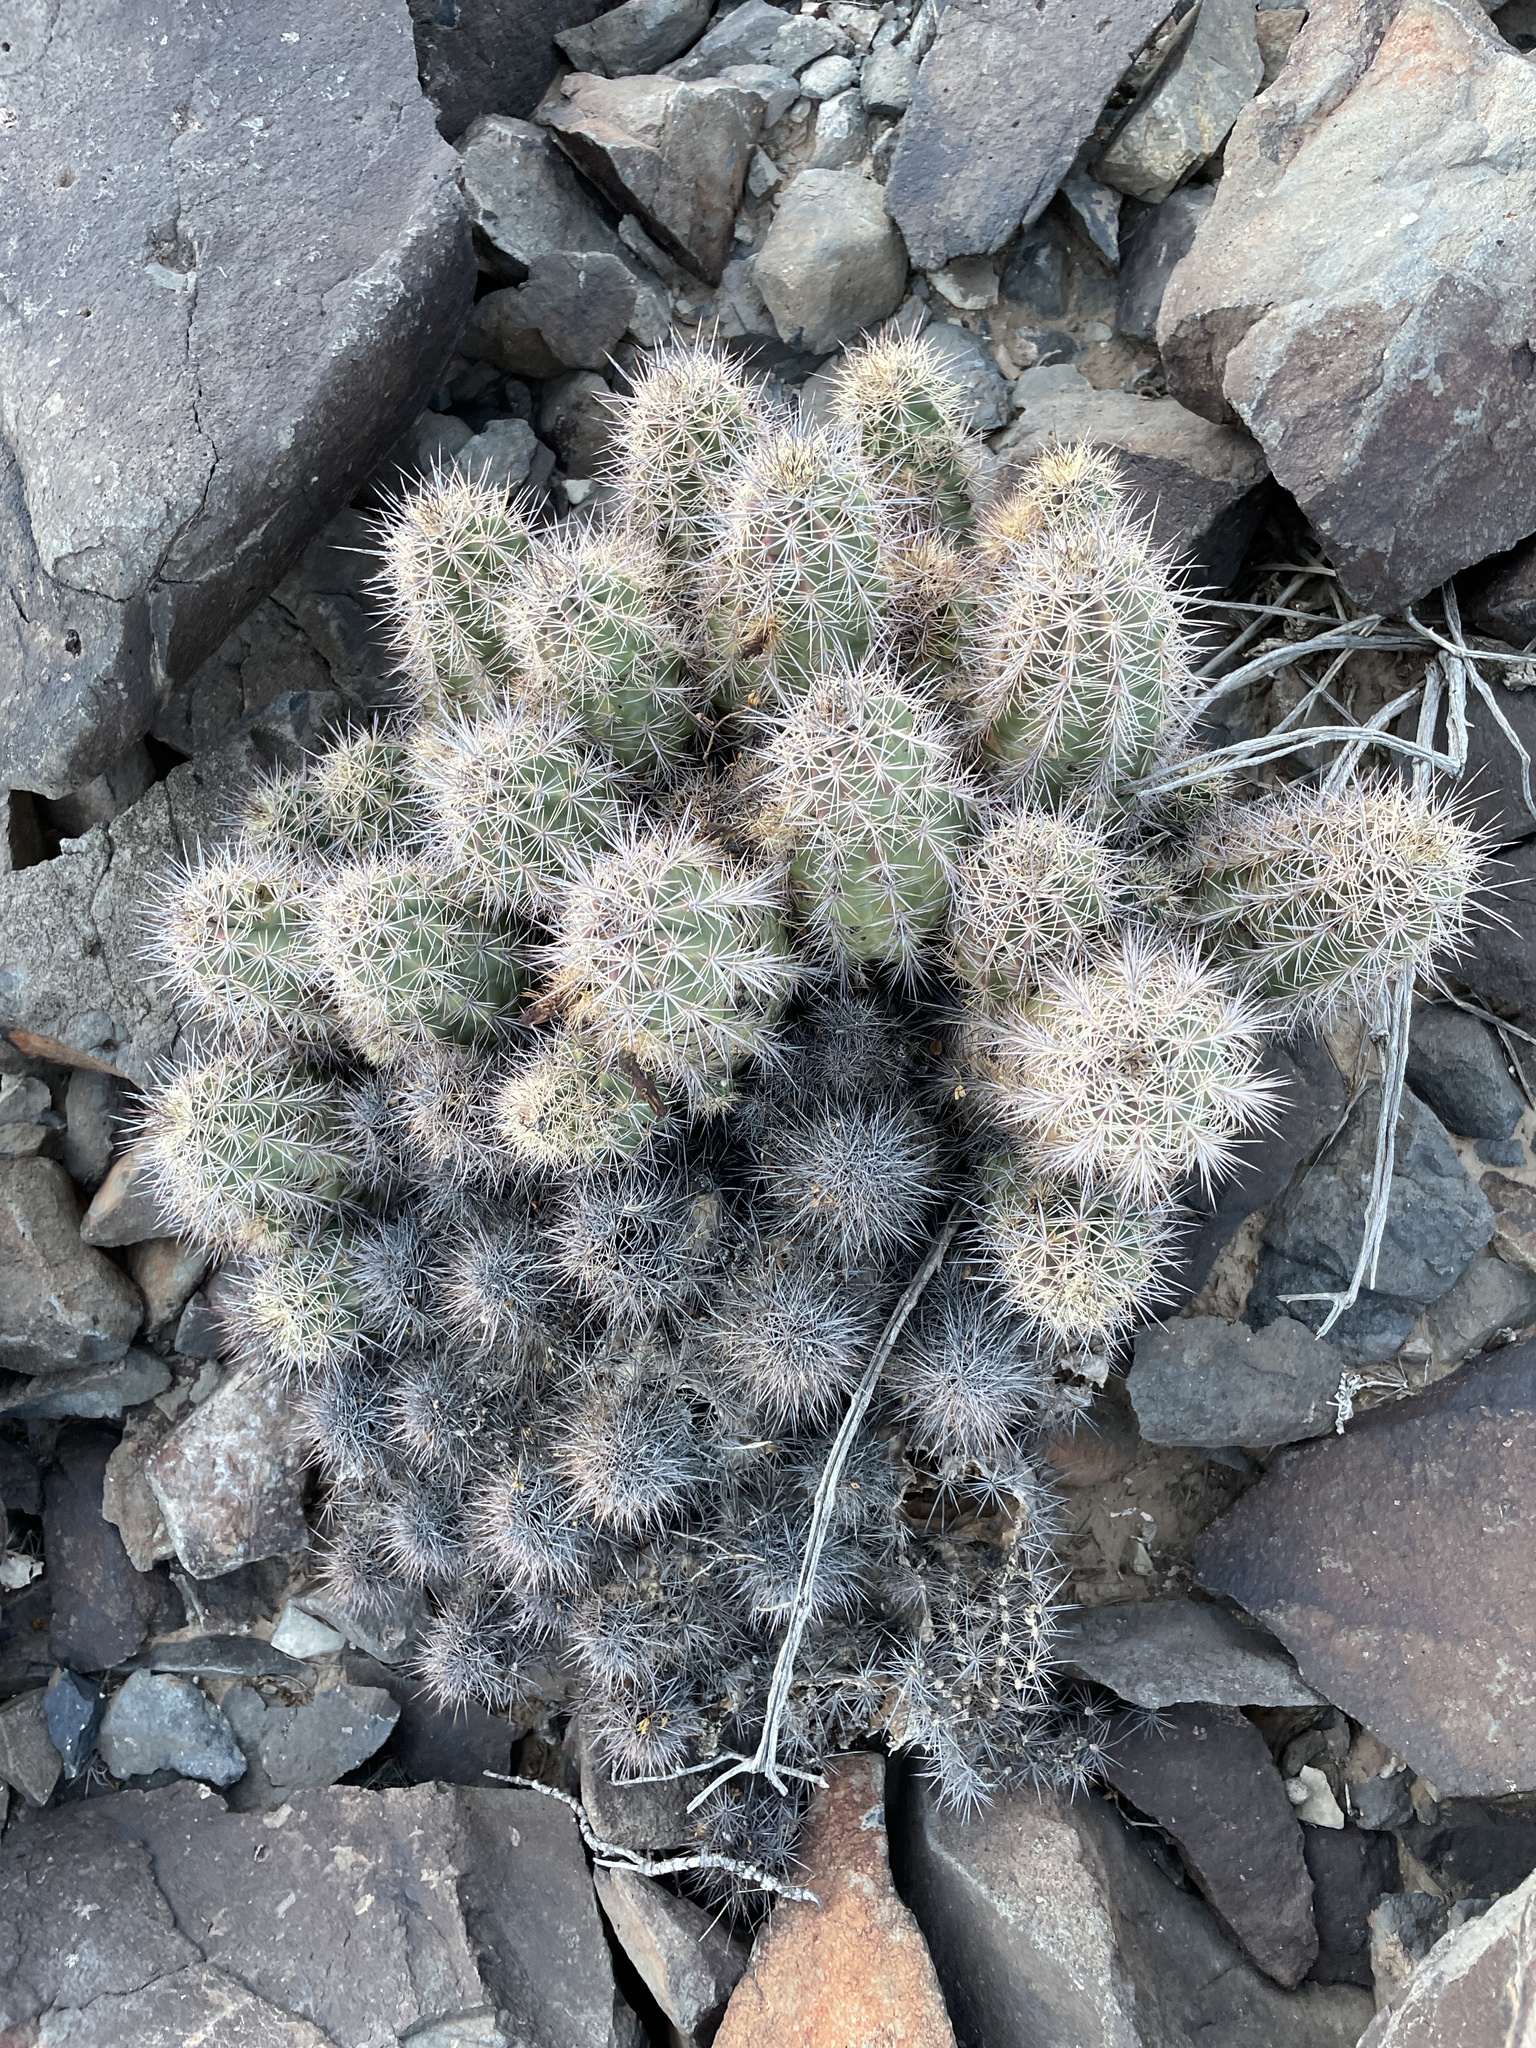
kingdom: Plantae
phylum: Tracheophyta
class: Magnoliopsida
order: Caryophyllales
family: Cactaceae
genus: Echinocereus
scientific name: Echinocereus coccineus
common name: Scarlet hedgehog cactus
